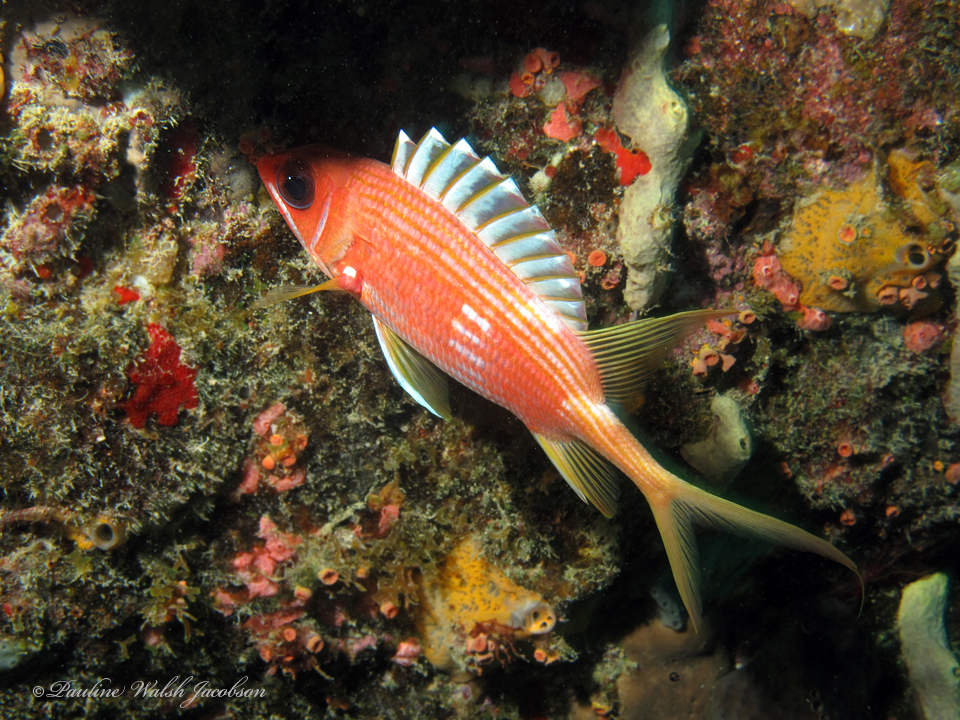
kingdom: Animalia
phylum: Chordata
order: Beryciformes
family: Holocentridae
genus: Holocentrus
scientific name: Holocentrus rufus
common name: Longspine squirrelfish
